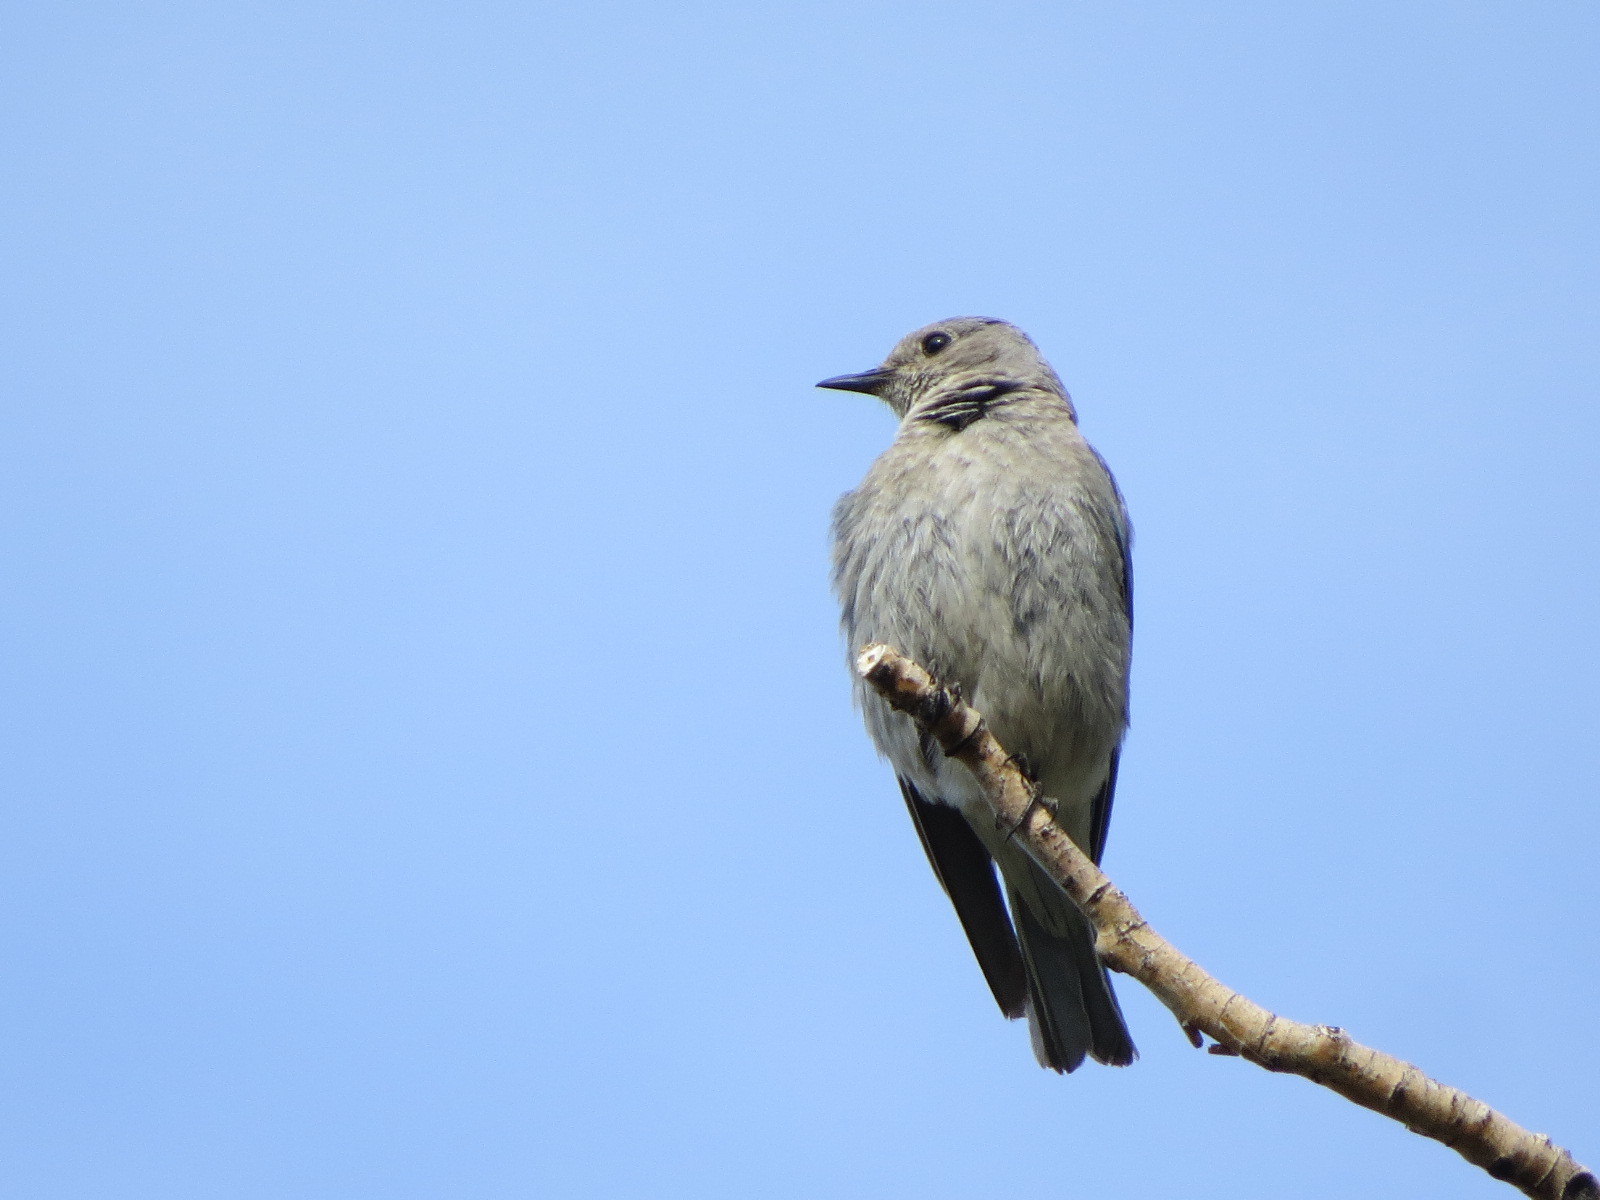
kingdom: Animalia
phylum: Chordata
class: Aves
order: Passeriformes
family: Turdidae
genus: Sialia
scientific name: Sialia currucoides
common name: Mountain bluebird
